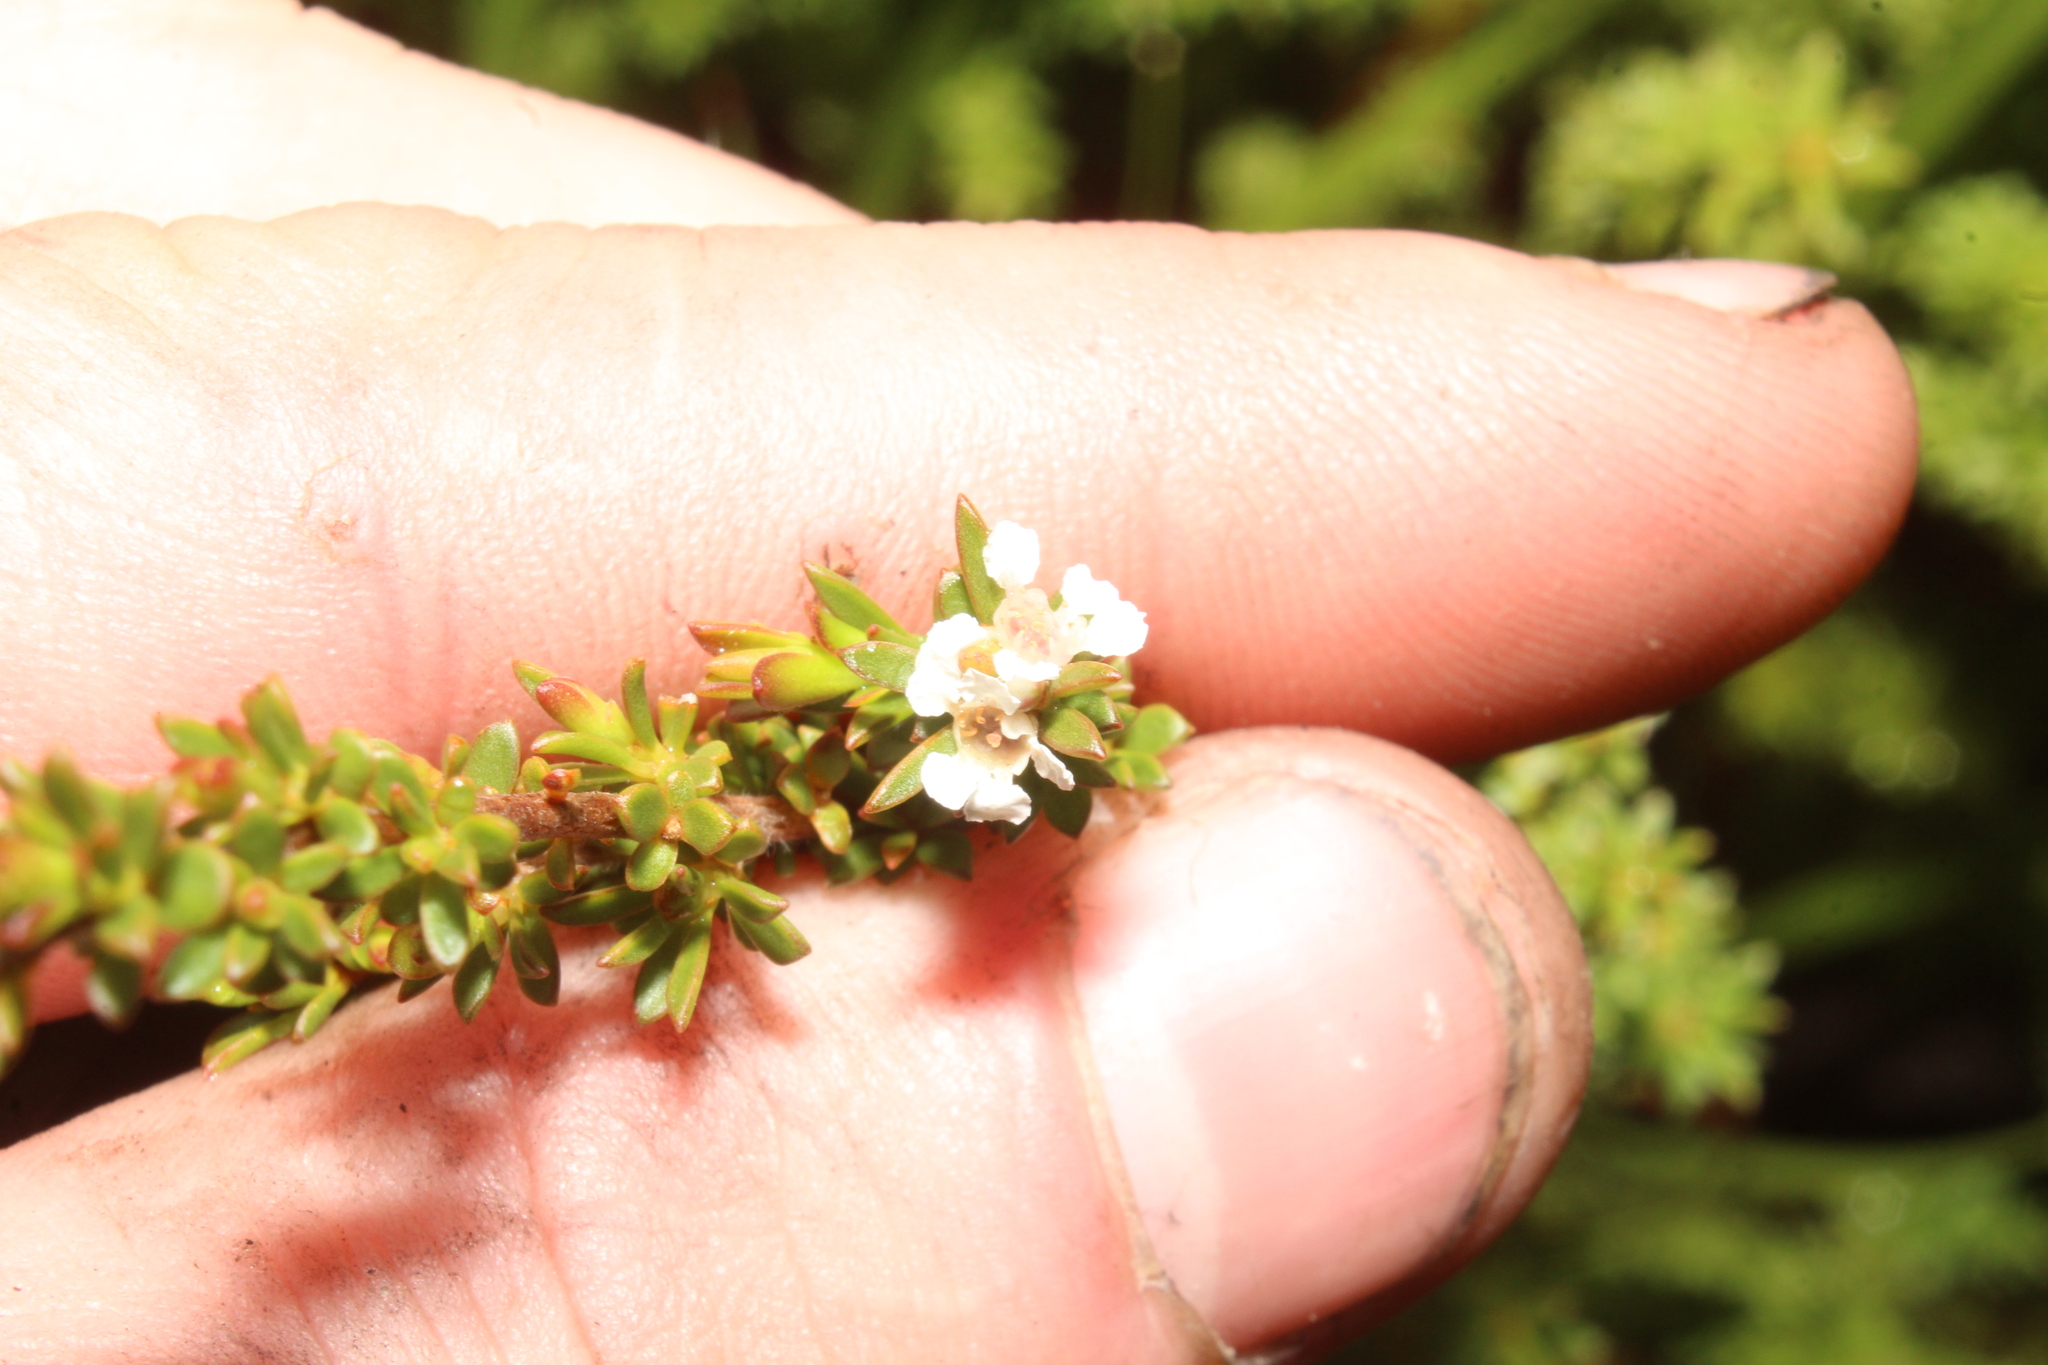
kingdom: Plantae
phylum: Tracheophyta
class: Magnoliopsida
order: Myrtales
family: Myrtaceae
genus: Taxandria
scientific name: Taxandria parviceps
